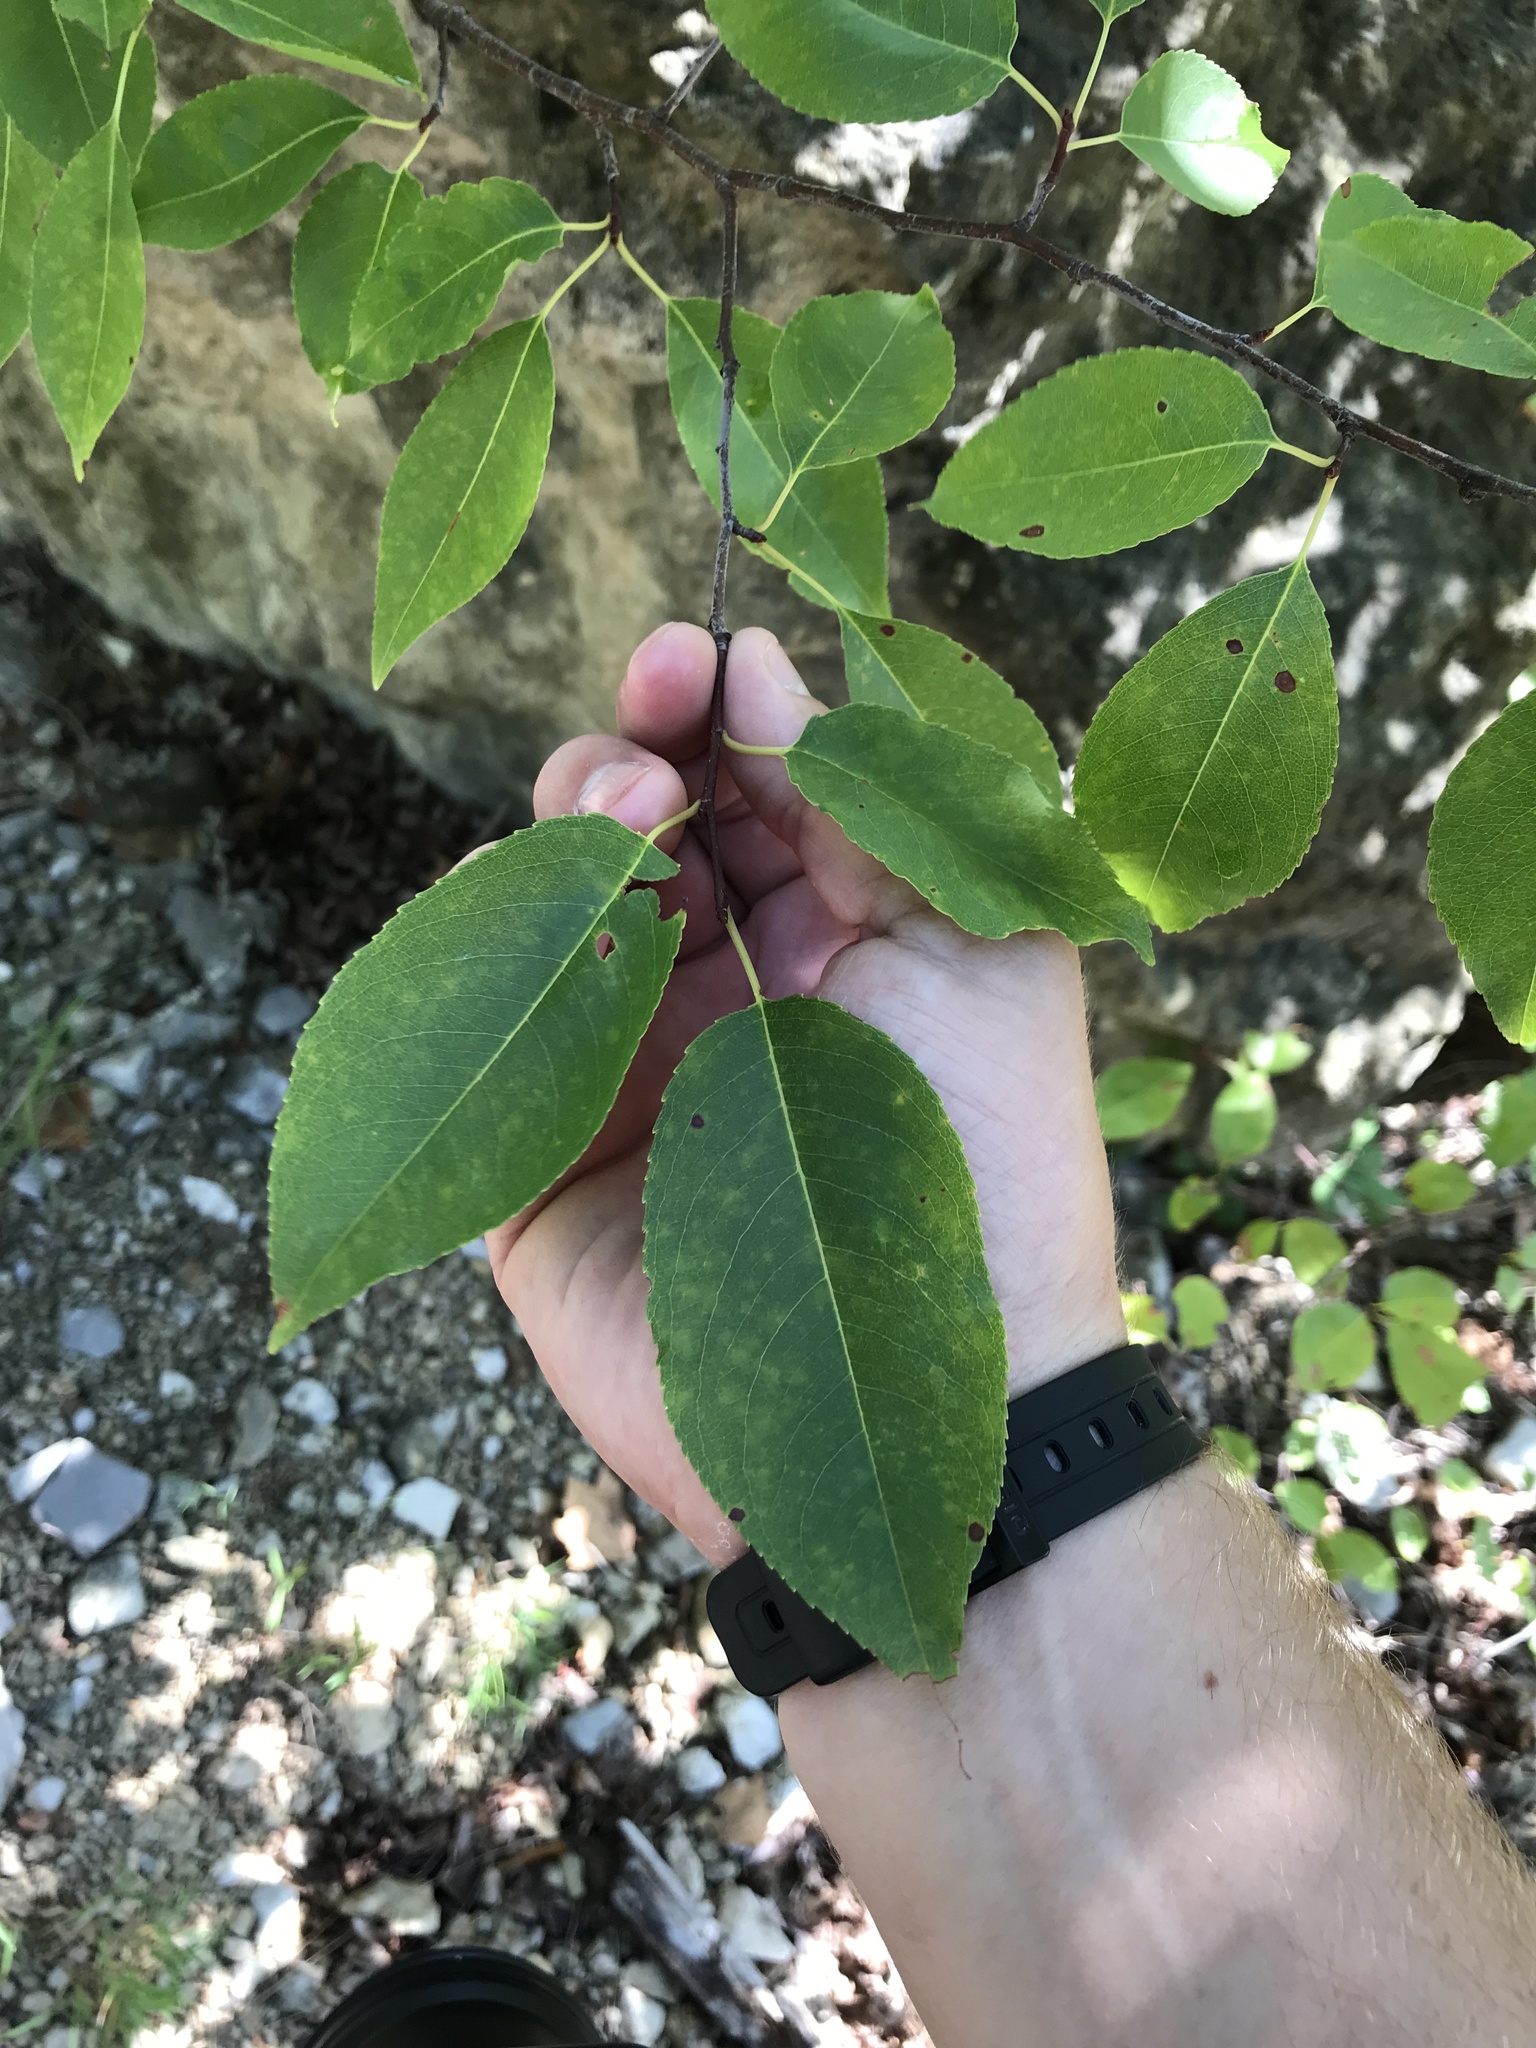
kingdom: Plantae
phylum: Tracheophyta
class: Magnoliopsida
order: Rosales
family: Rosaceae
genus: Prunus
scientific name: Prunus serotina
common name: Black cherry
